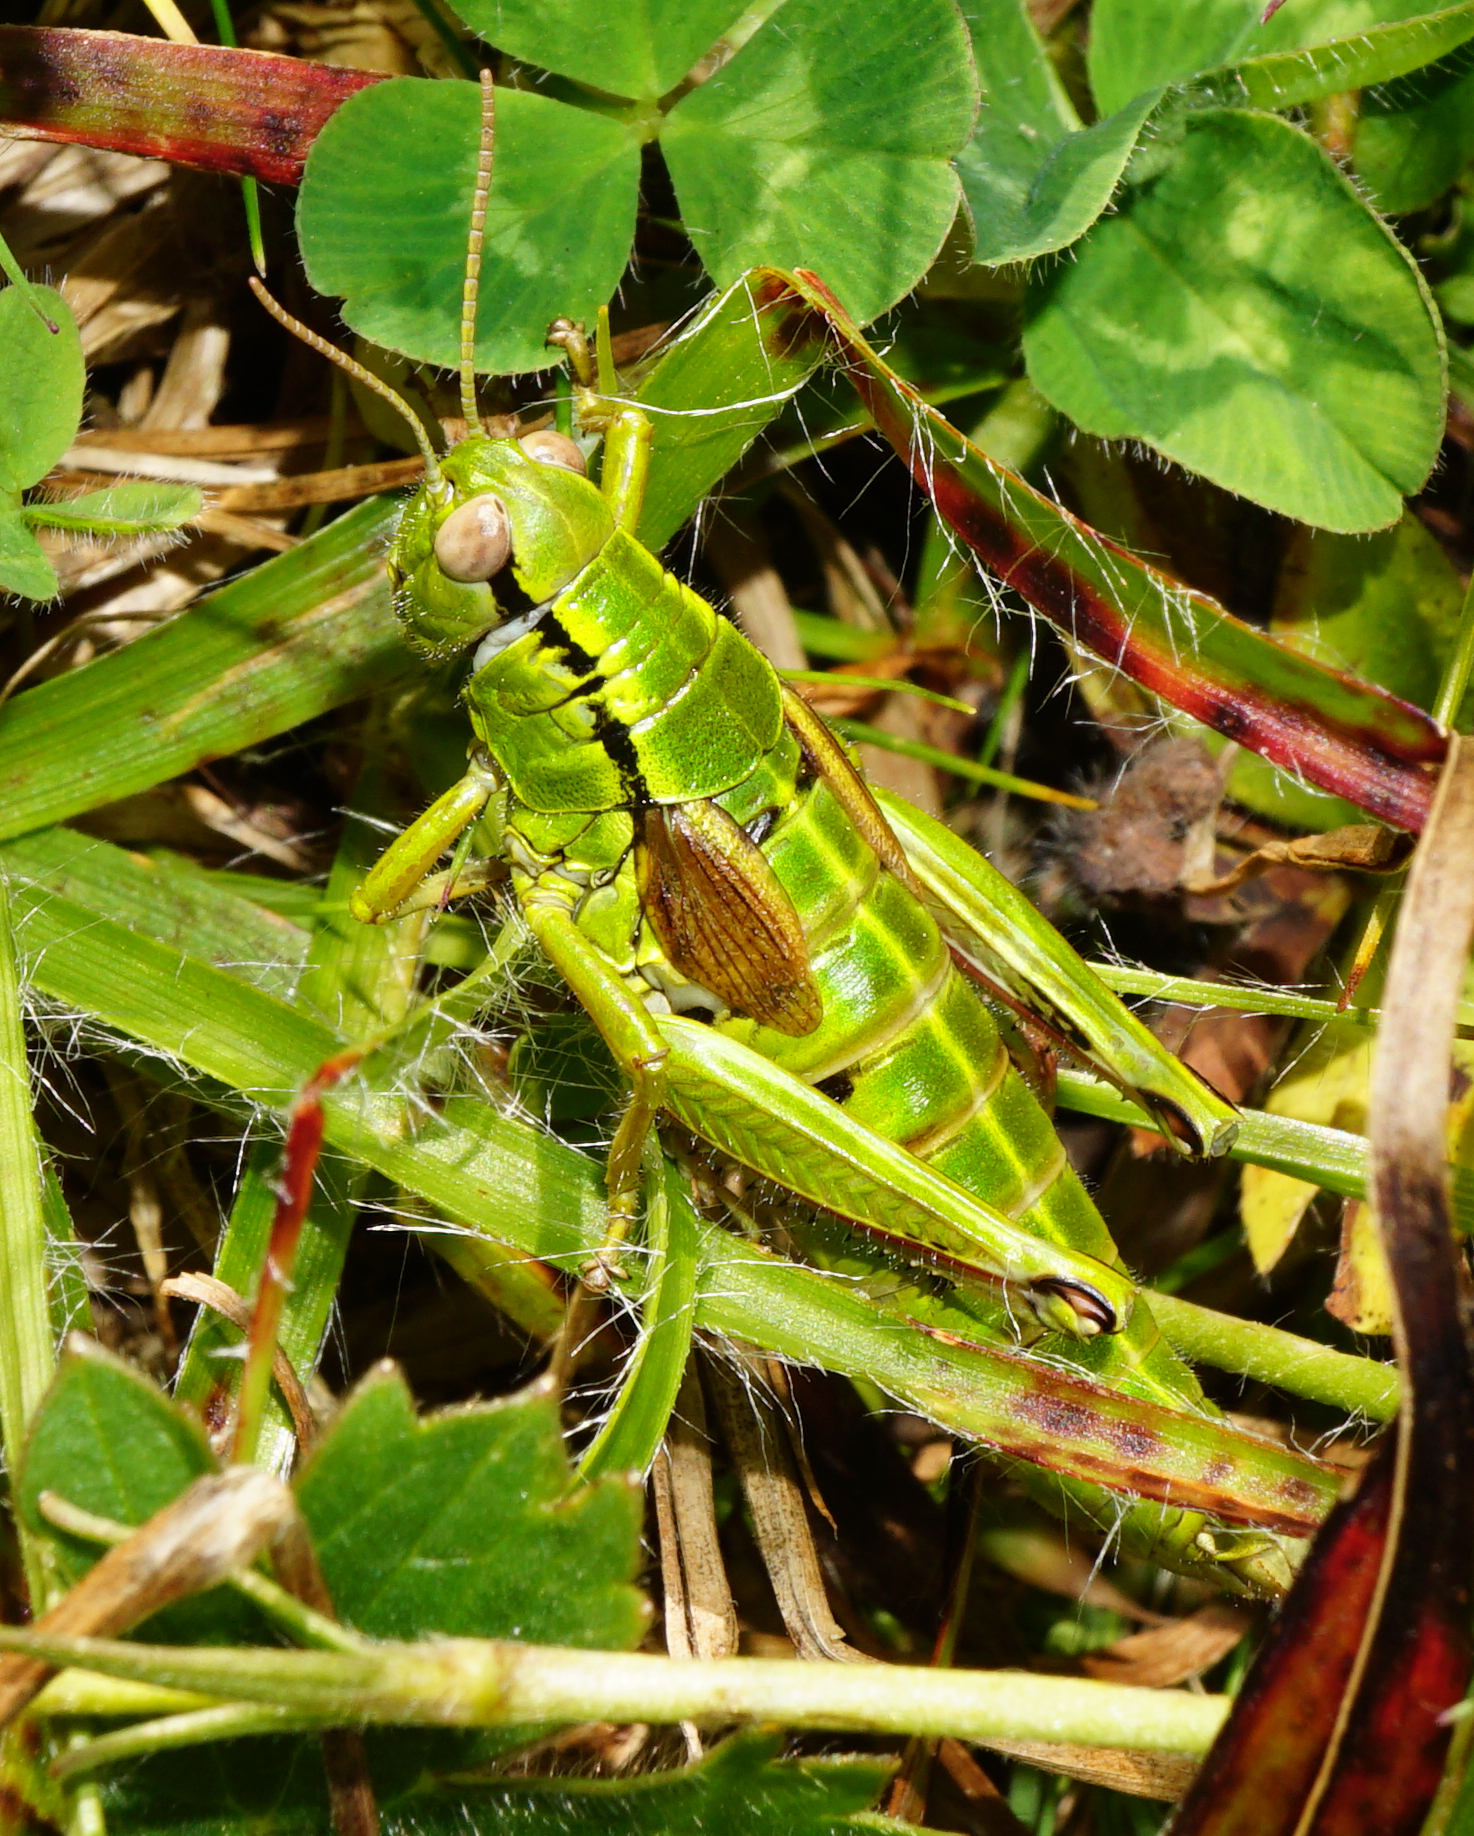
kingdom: Animalia
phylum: Arthropoda
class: Insecta
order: Orthoptera
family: Acrididae
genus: Miramella
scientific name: Miramella alpina
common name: Green mountain grasshopper
